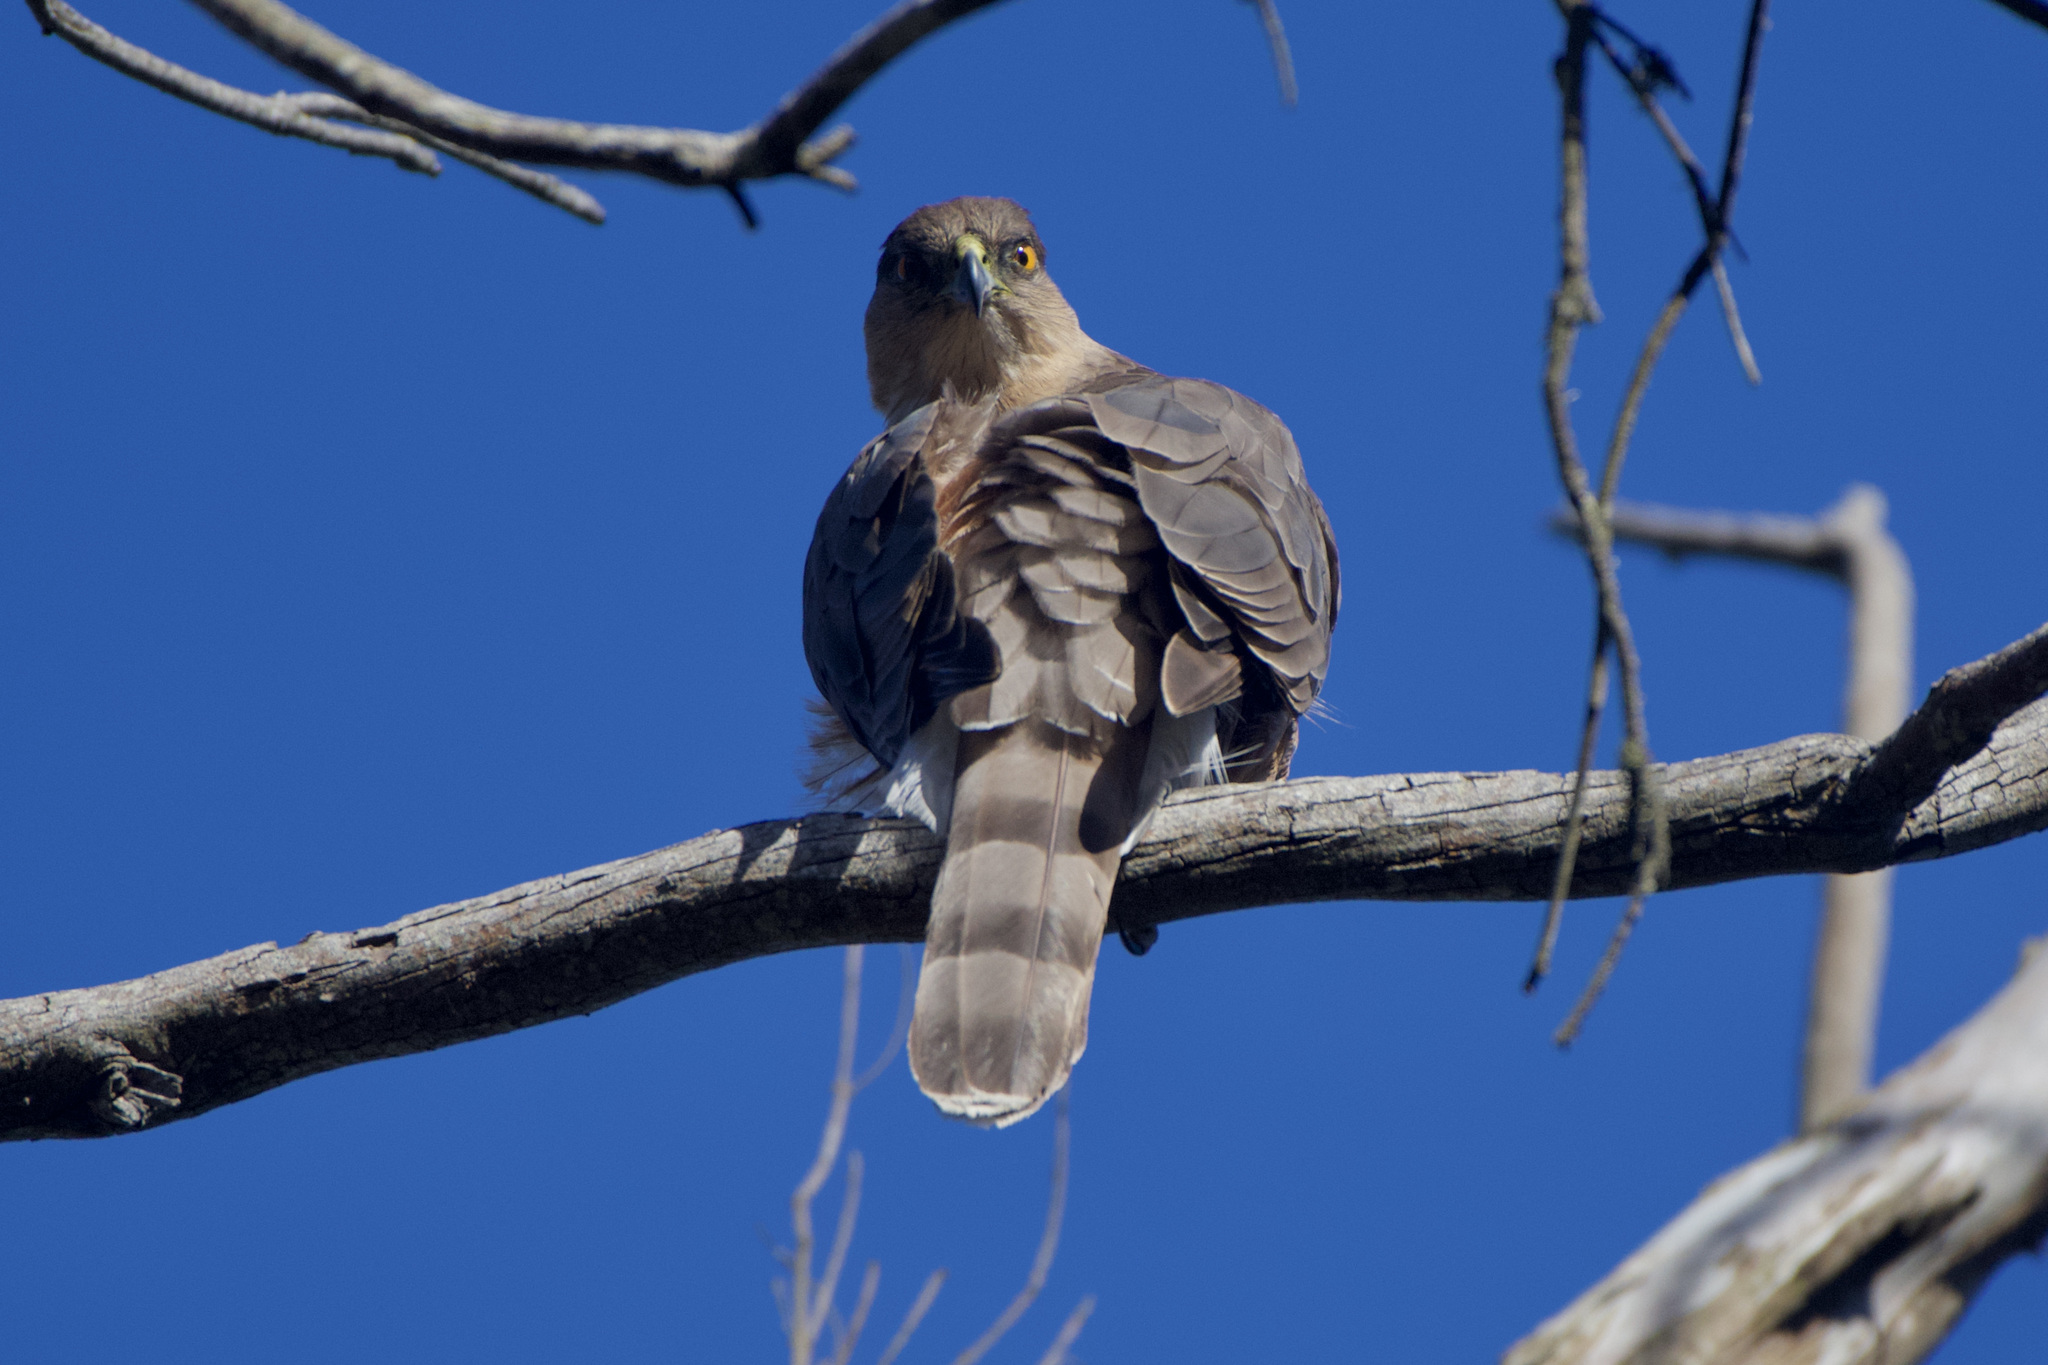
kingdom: Animalia
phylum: Chordata
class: Aves
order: Accipitriformes
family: Accipitridae
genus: Accipiter
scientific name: Accipiter cooperii
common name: Cooper's hawk
